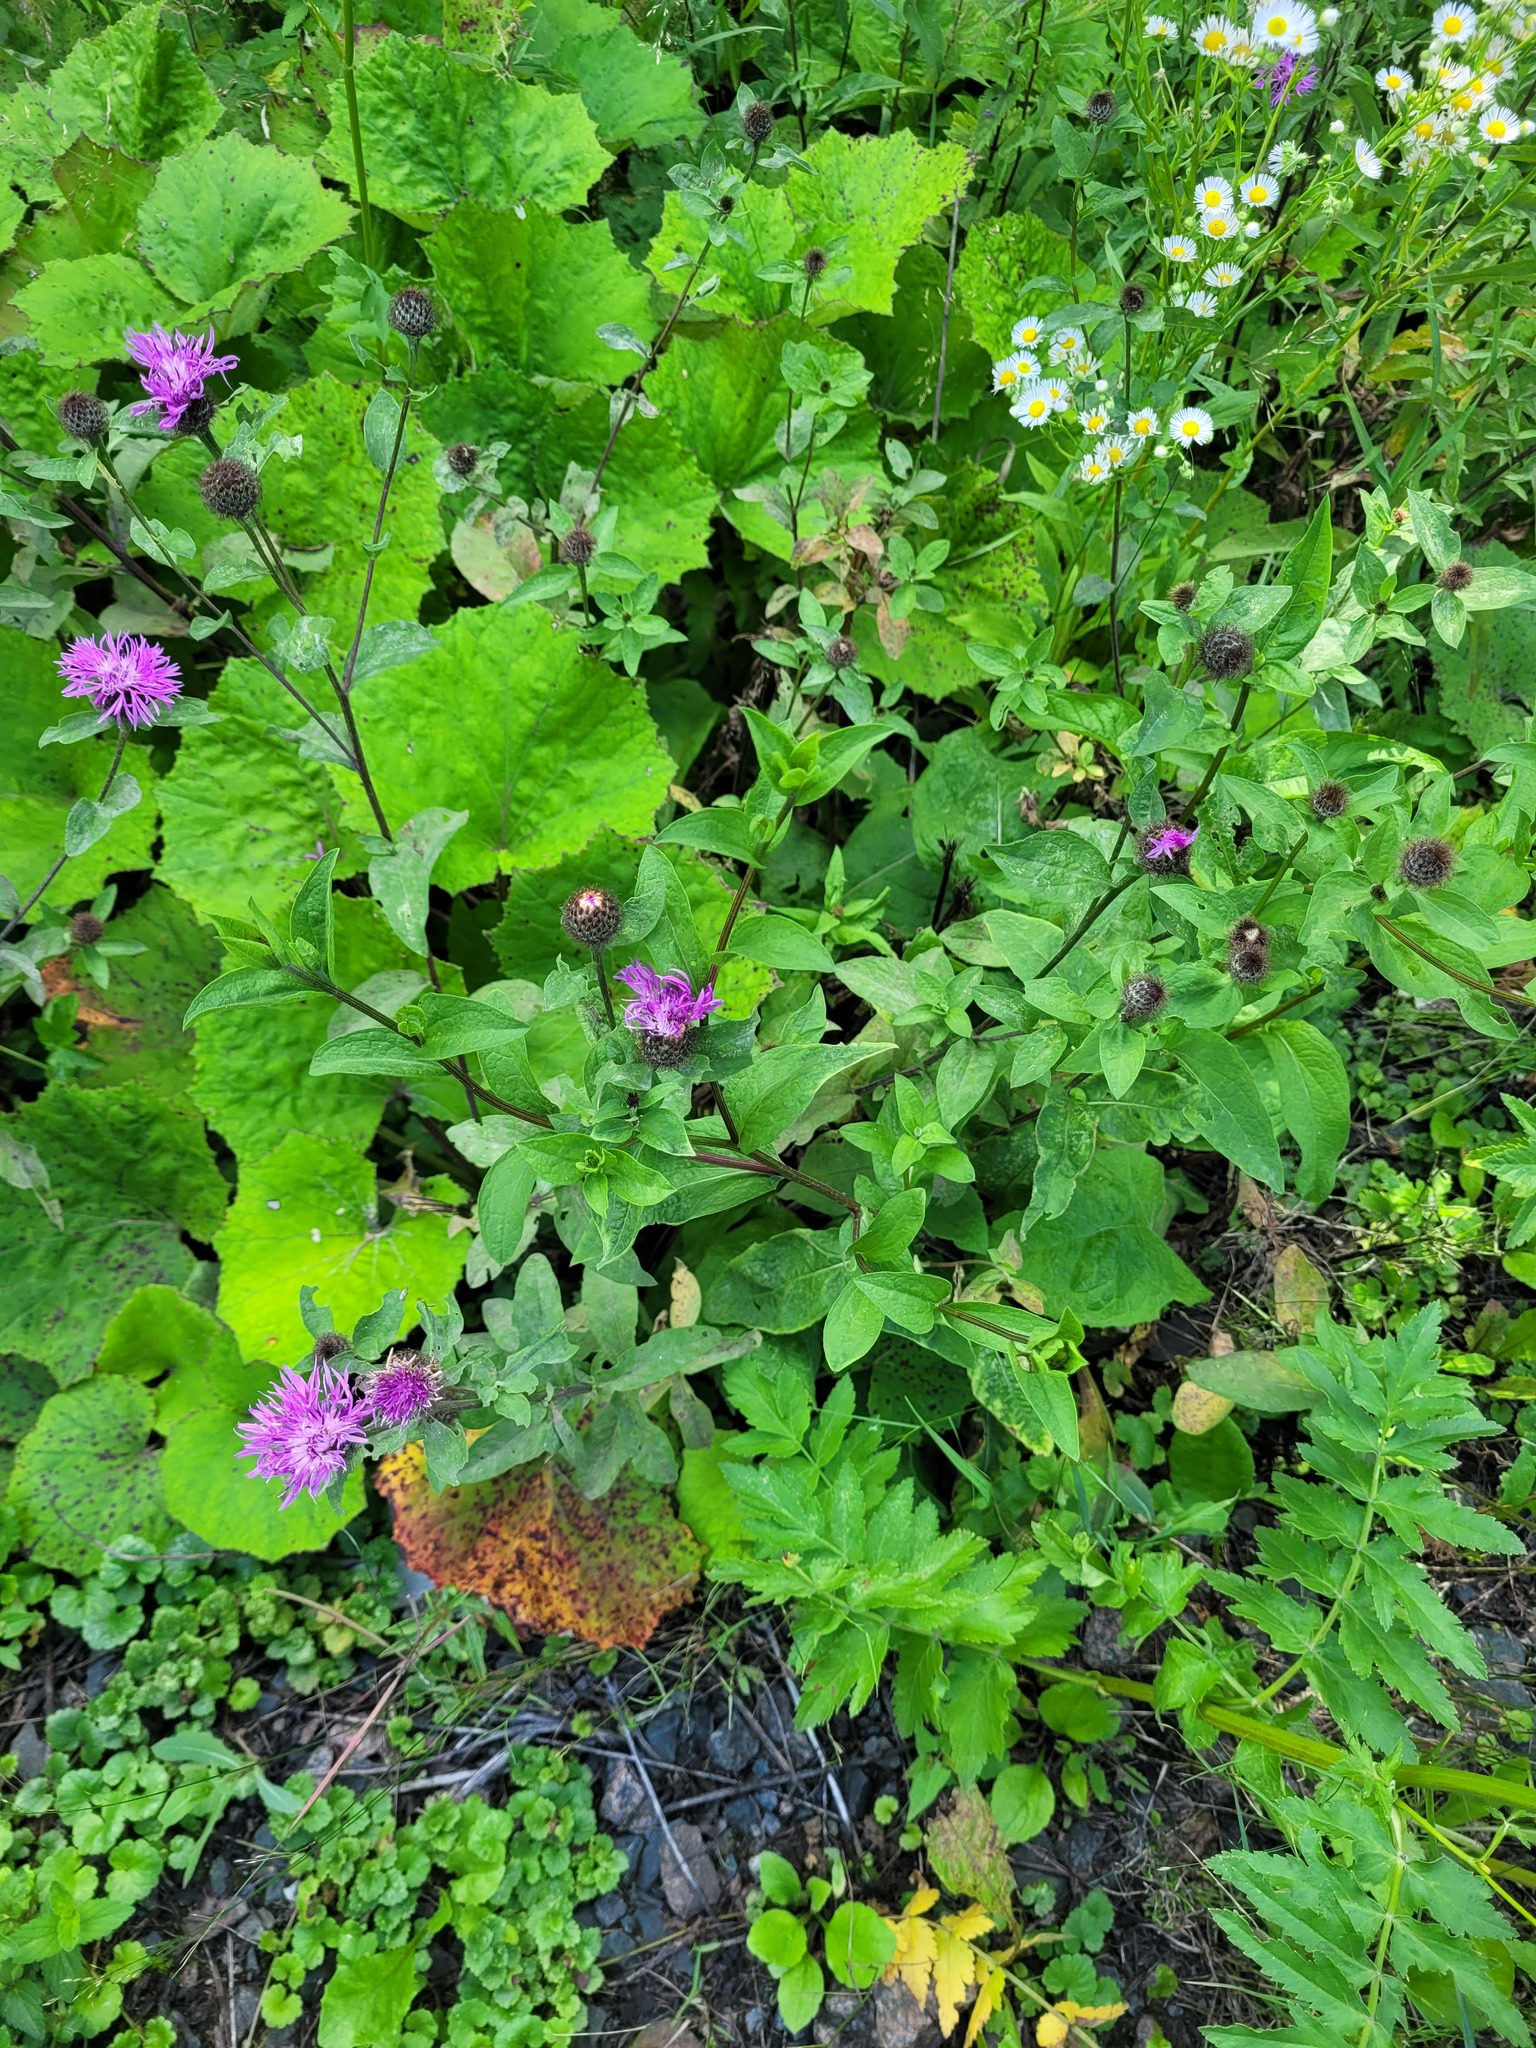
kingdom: Plantae
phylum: Tracheophyta
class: Magnoliopsida
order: Asterales
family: Asteraceae
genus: Centaurea
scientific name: Centaurea pseudophrygia
